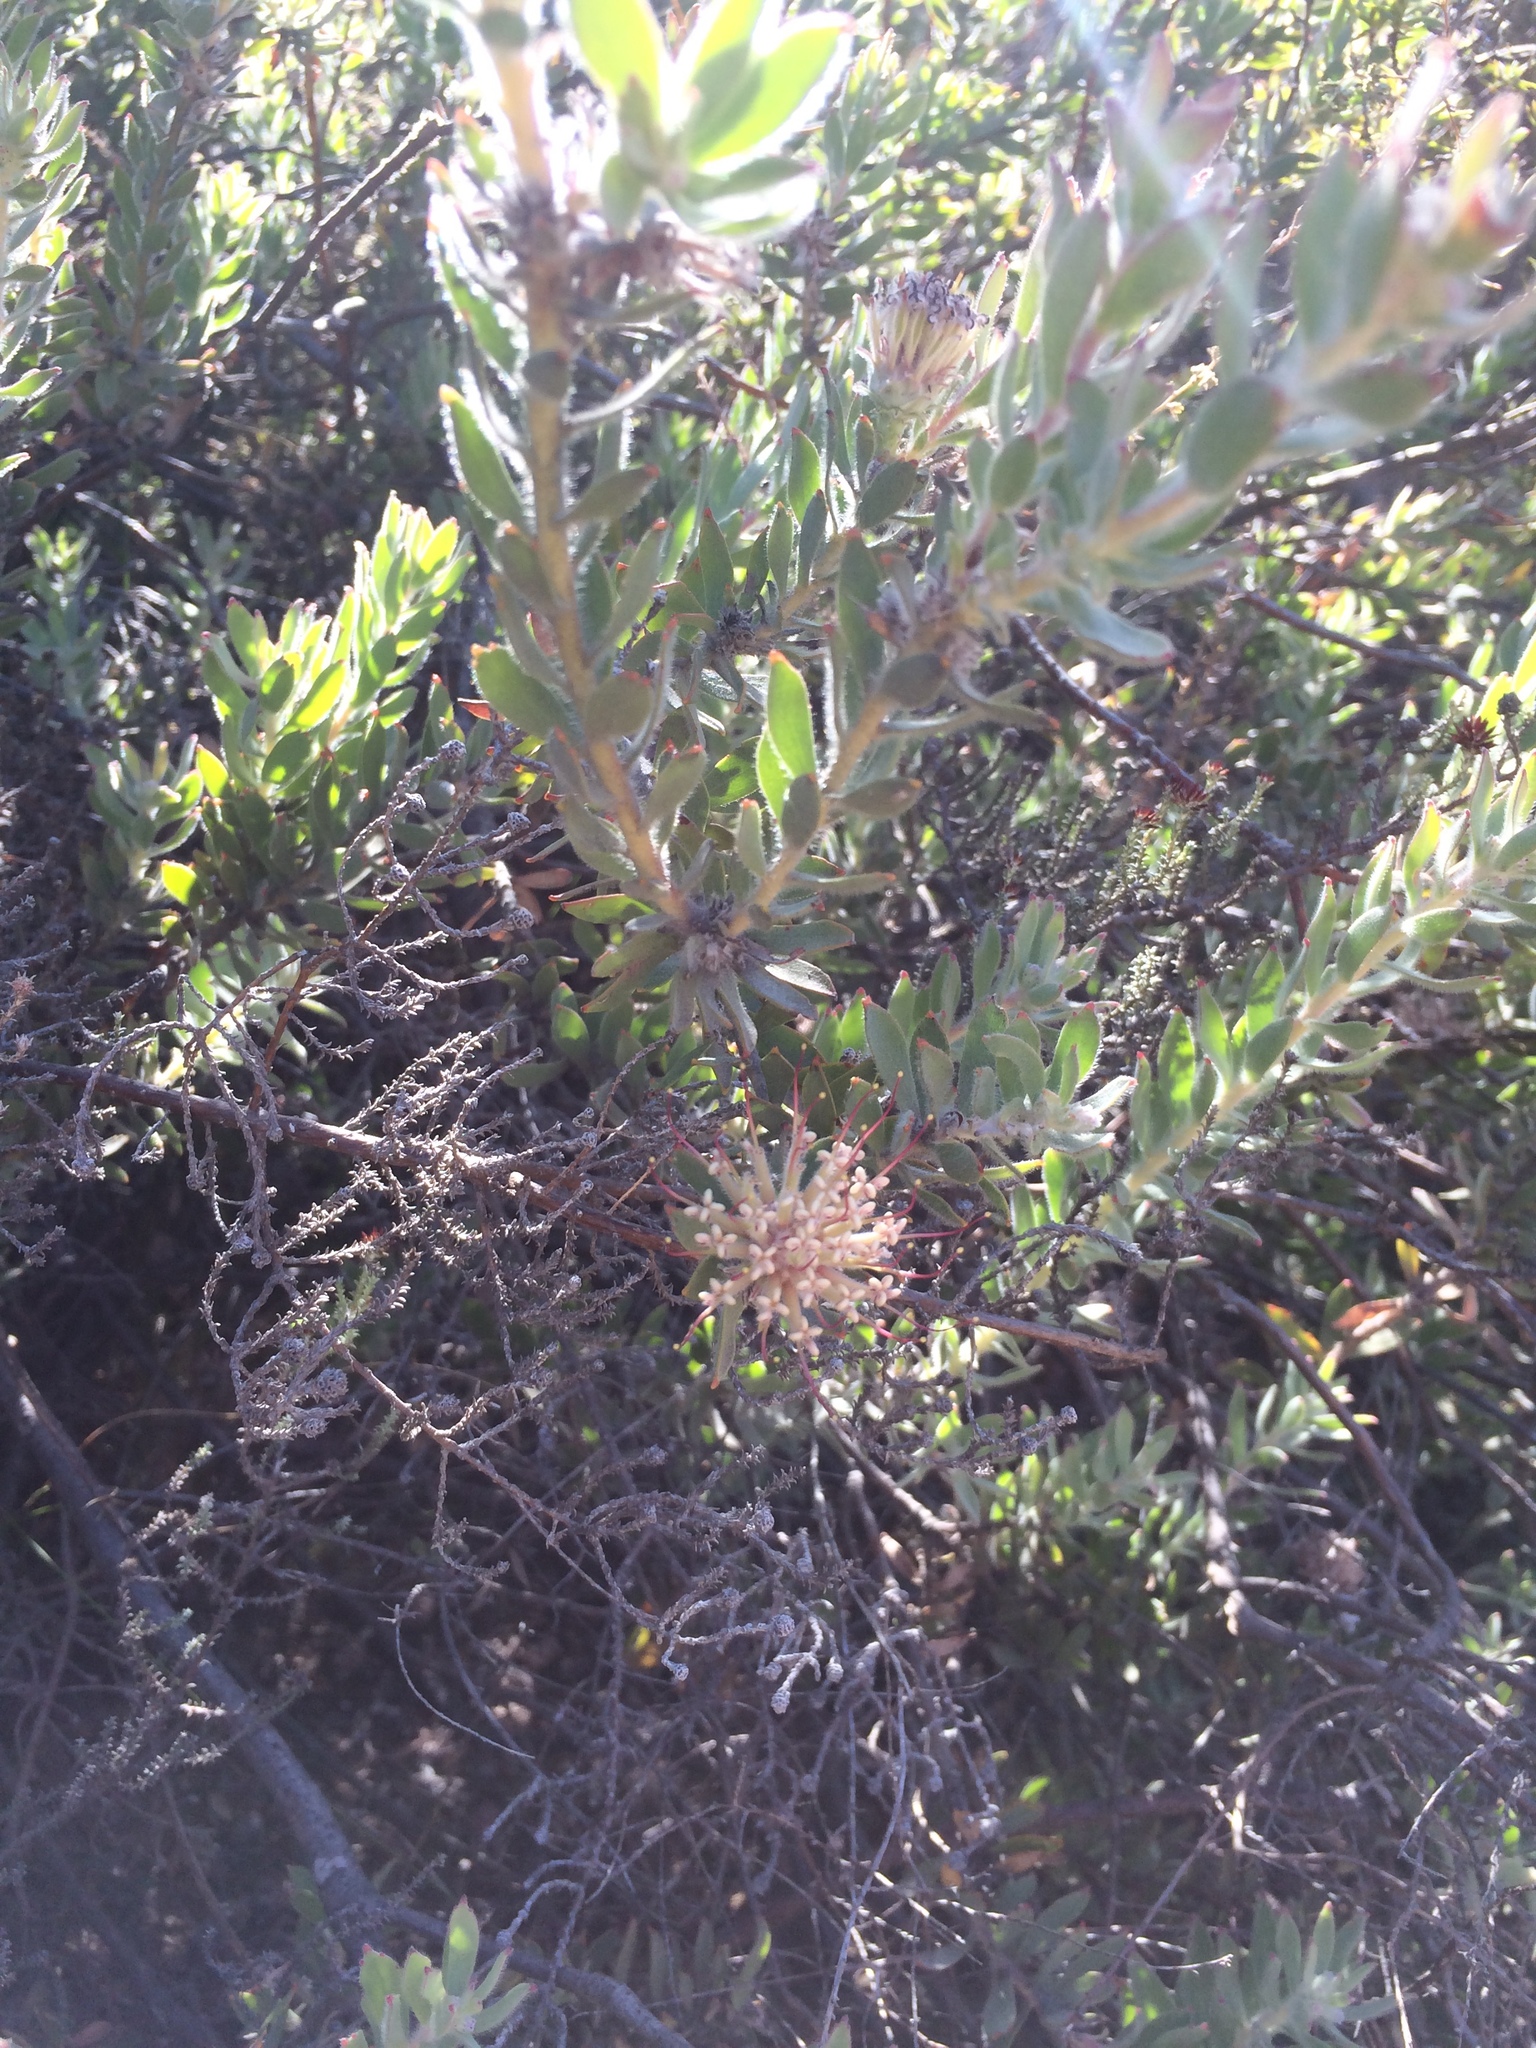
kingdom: Plantae
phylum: Tracheophyta
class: Magnoliopsida
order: Proteales
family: Proteaceae
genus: Leucospermum
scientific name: Leucospermum calligerum
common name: Arid pincushion
